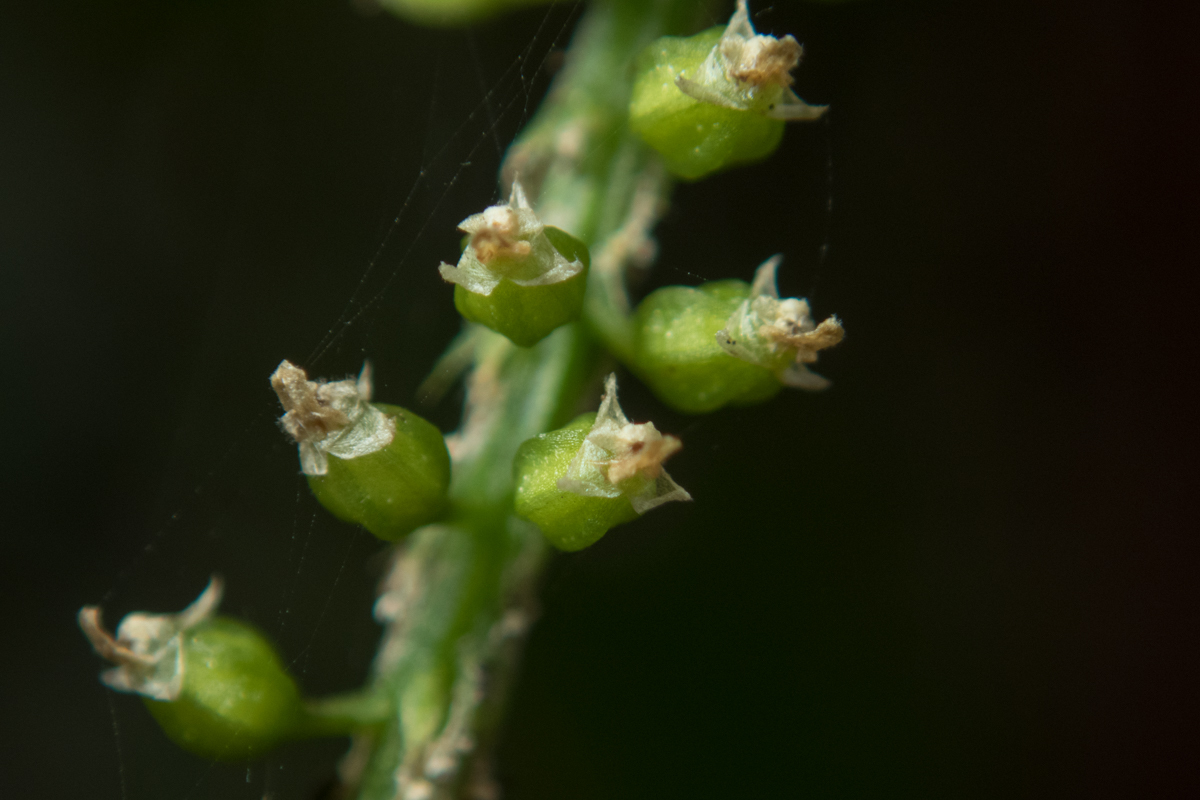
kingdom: Plantae
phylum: Tracheophyta
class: Liliopsida
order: Asparagales
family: Orchidaceae
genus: Oberonia
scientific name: Oberonia falcata
